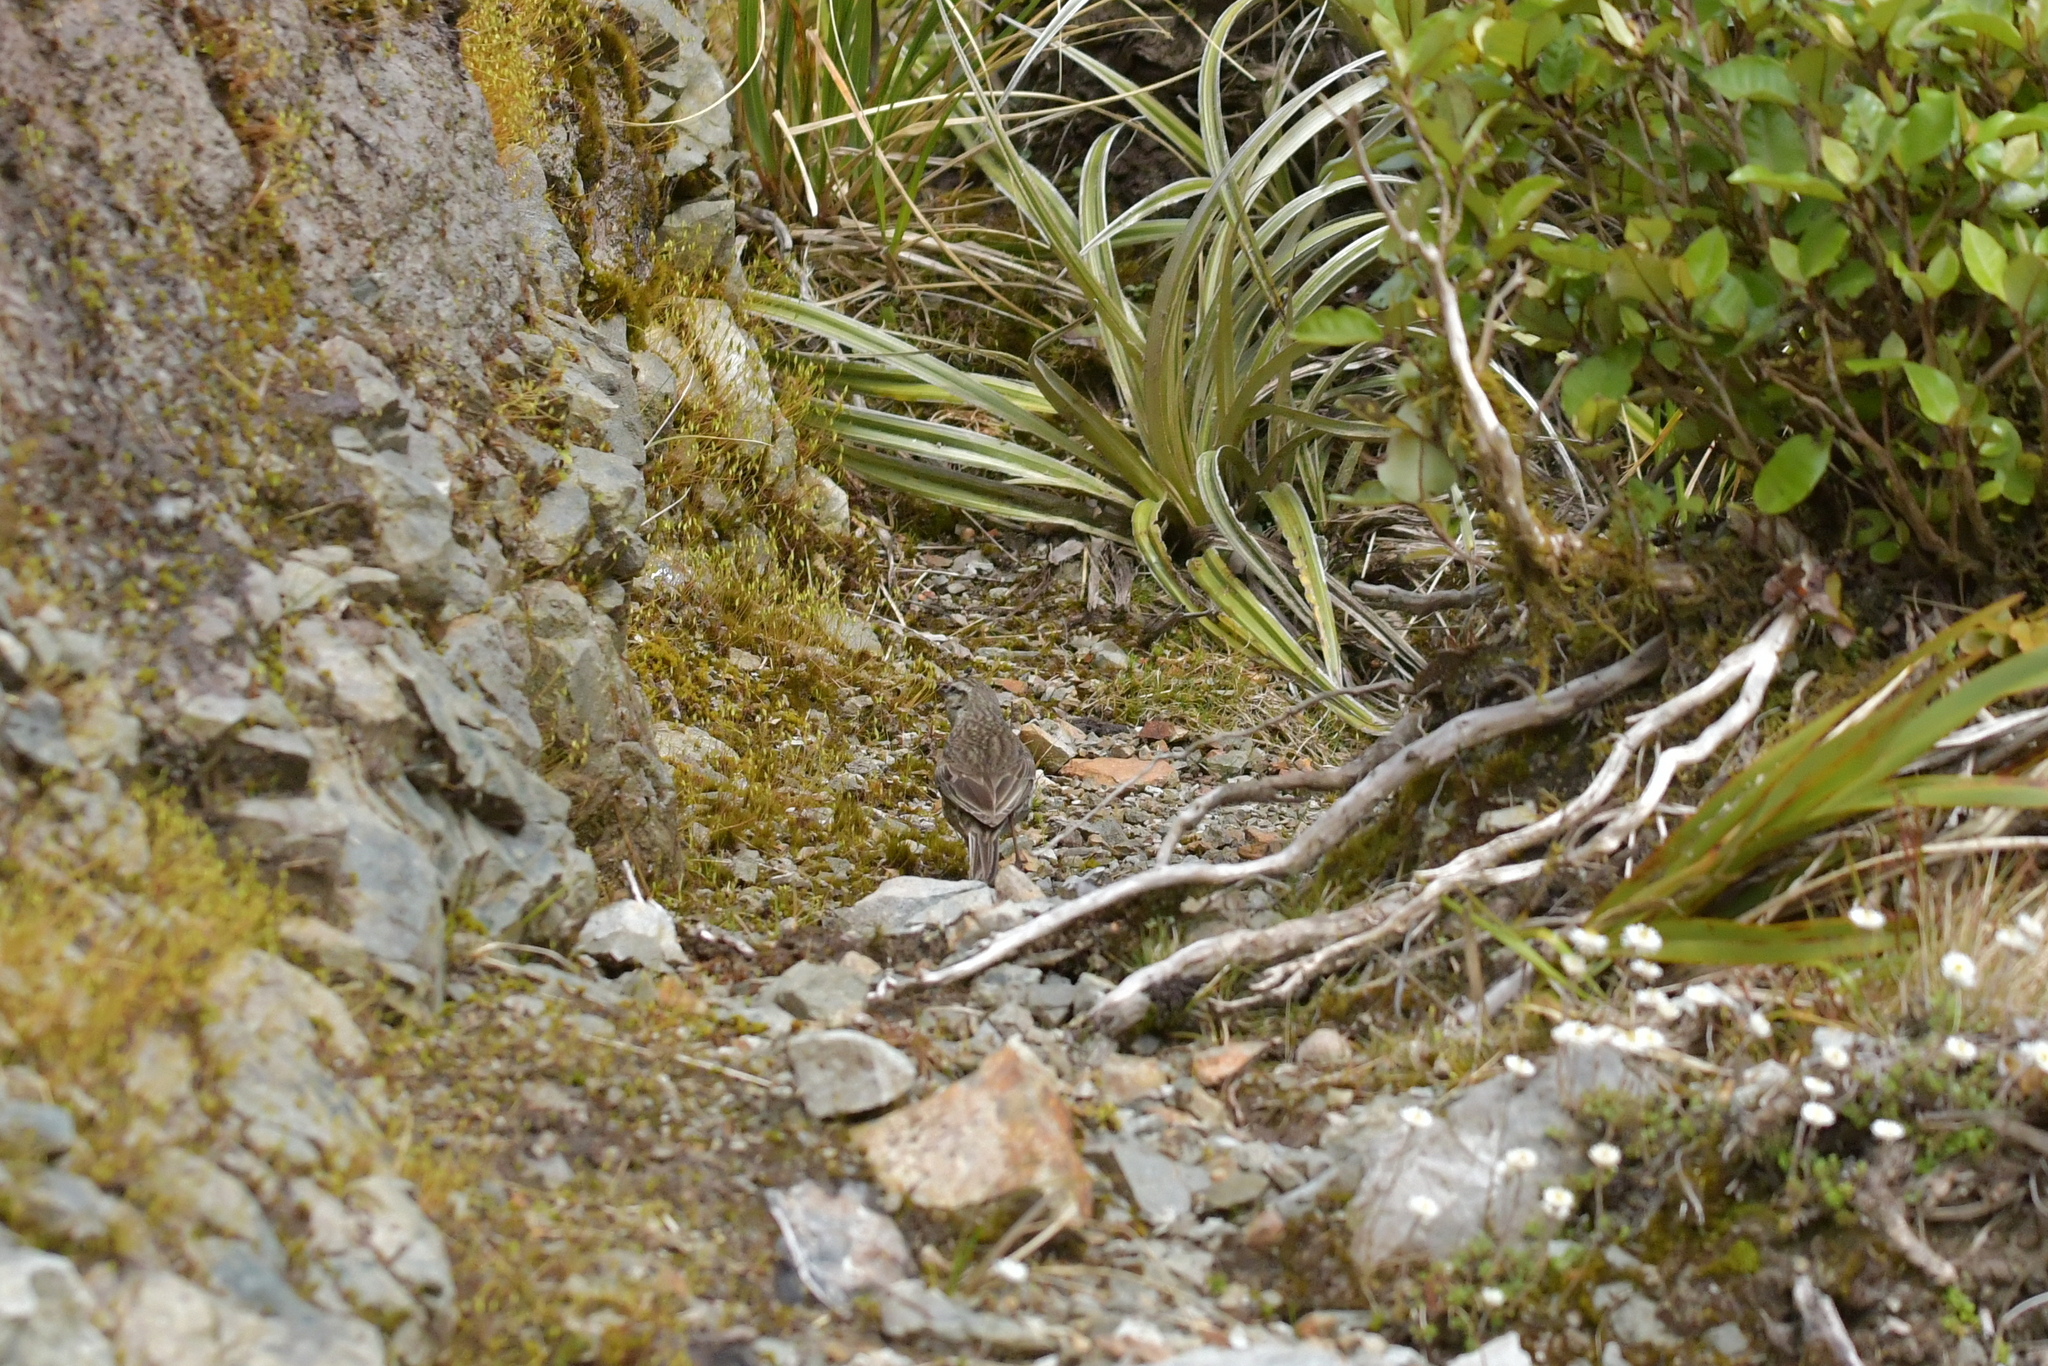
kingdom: Animalia
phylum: Chordata
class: Aves
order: Passeriformes
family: Motacillidae
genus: Anthus
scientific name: Anthus novaeseelandiae
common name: New zealand pipit
